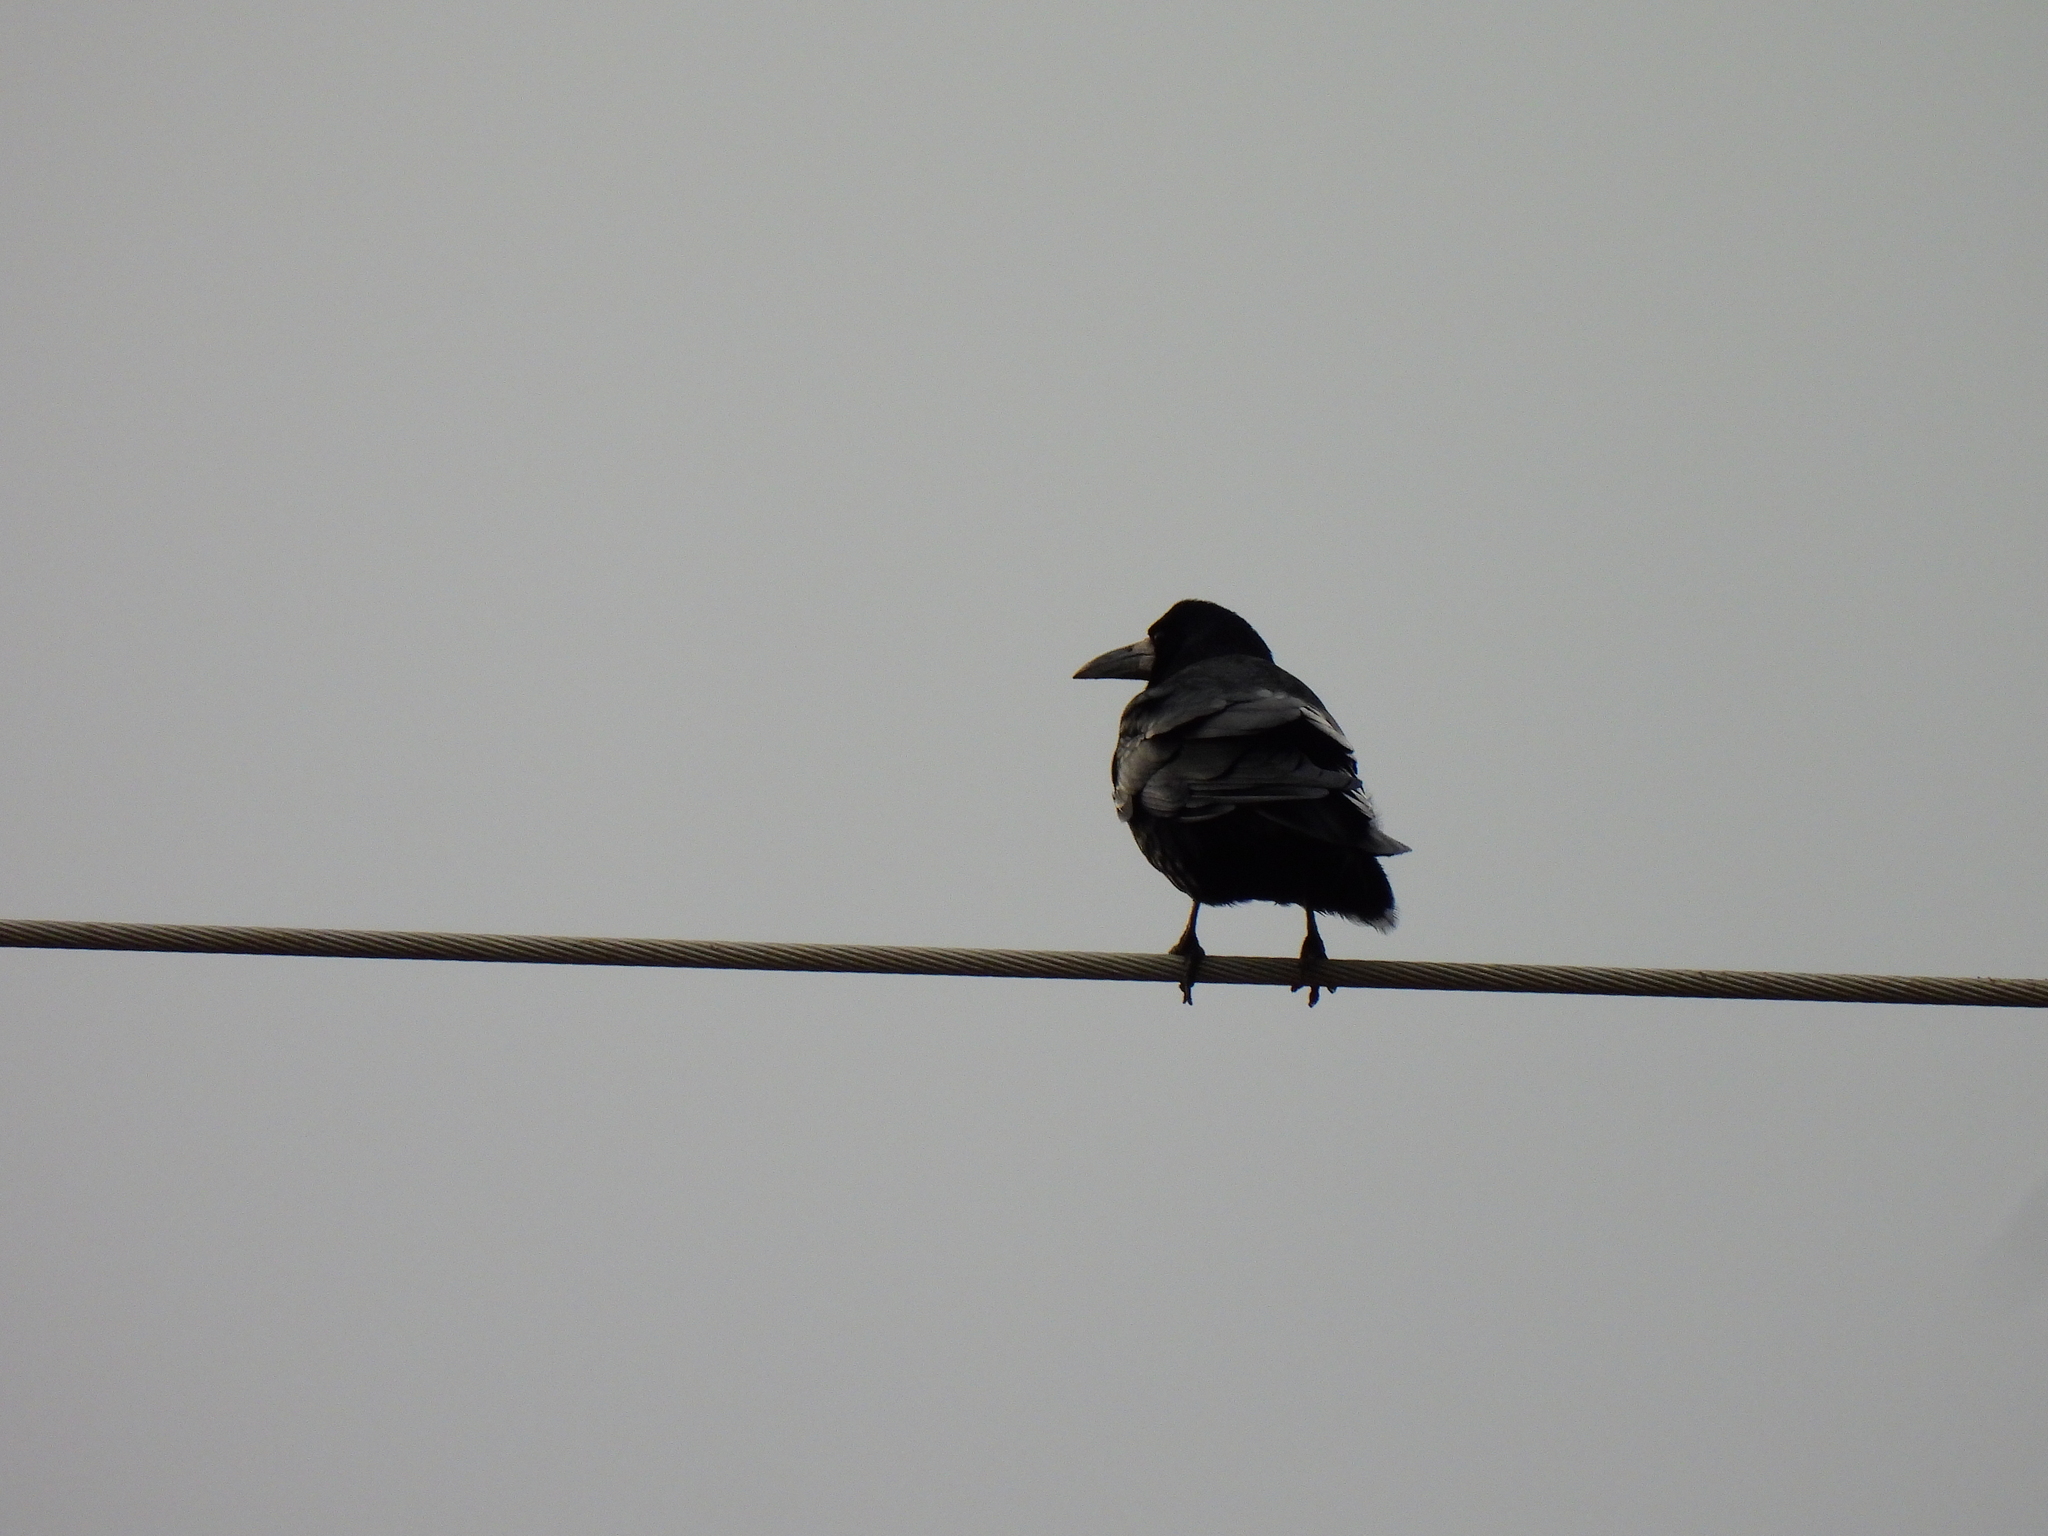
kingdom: Animalia
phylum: Chordata
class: Aves
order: Passeriformes
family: Corvidae
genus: Corvus
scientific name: Corvus frugilegus
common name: Rook
